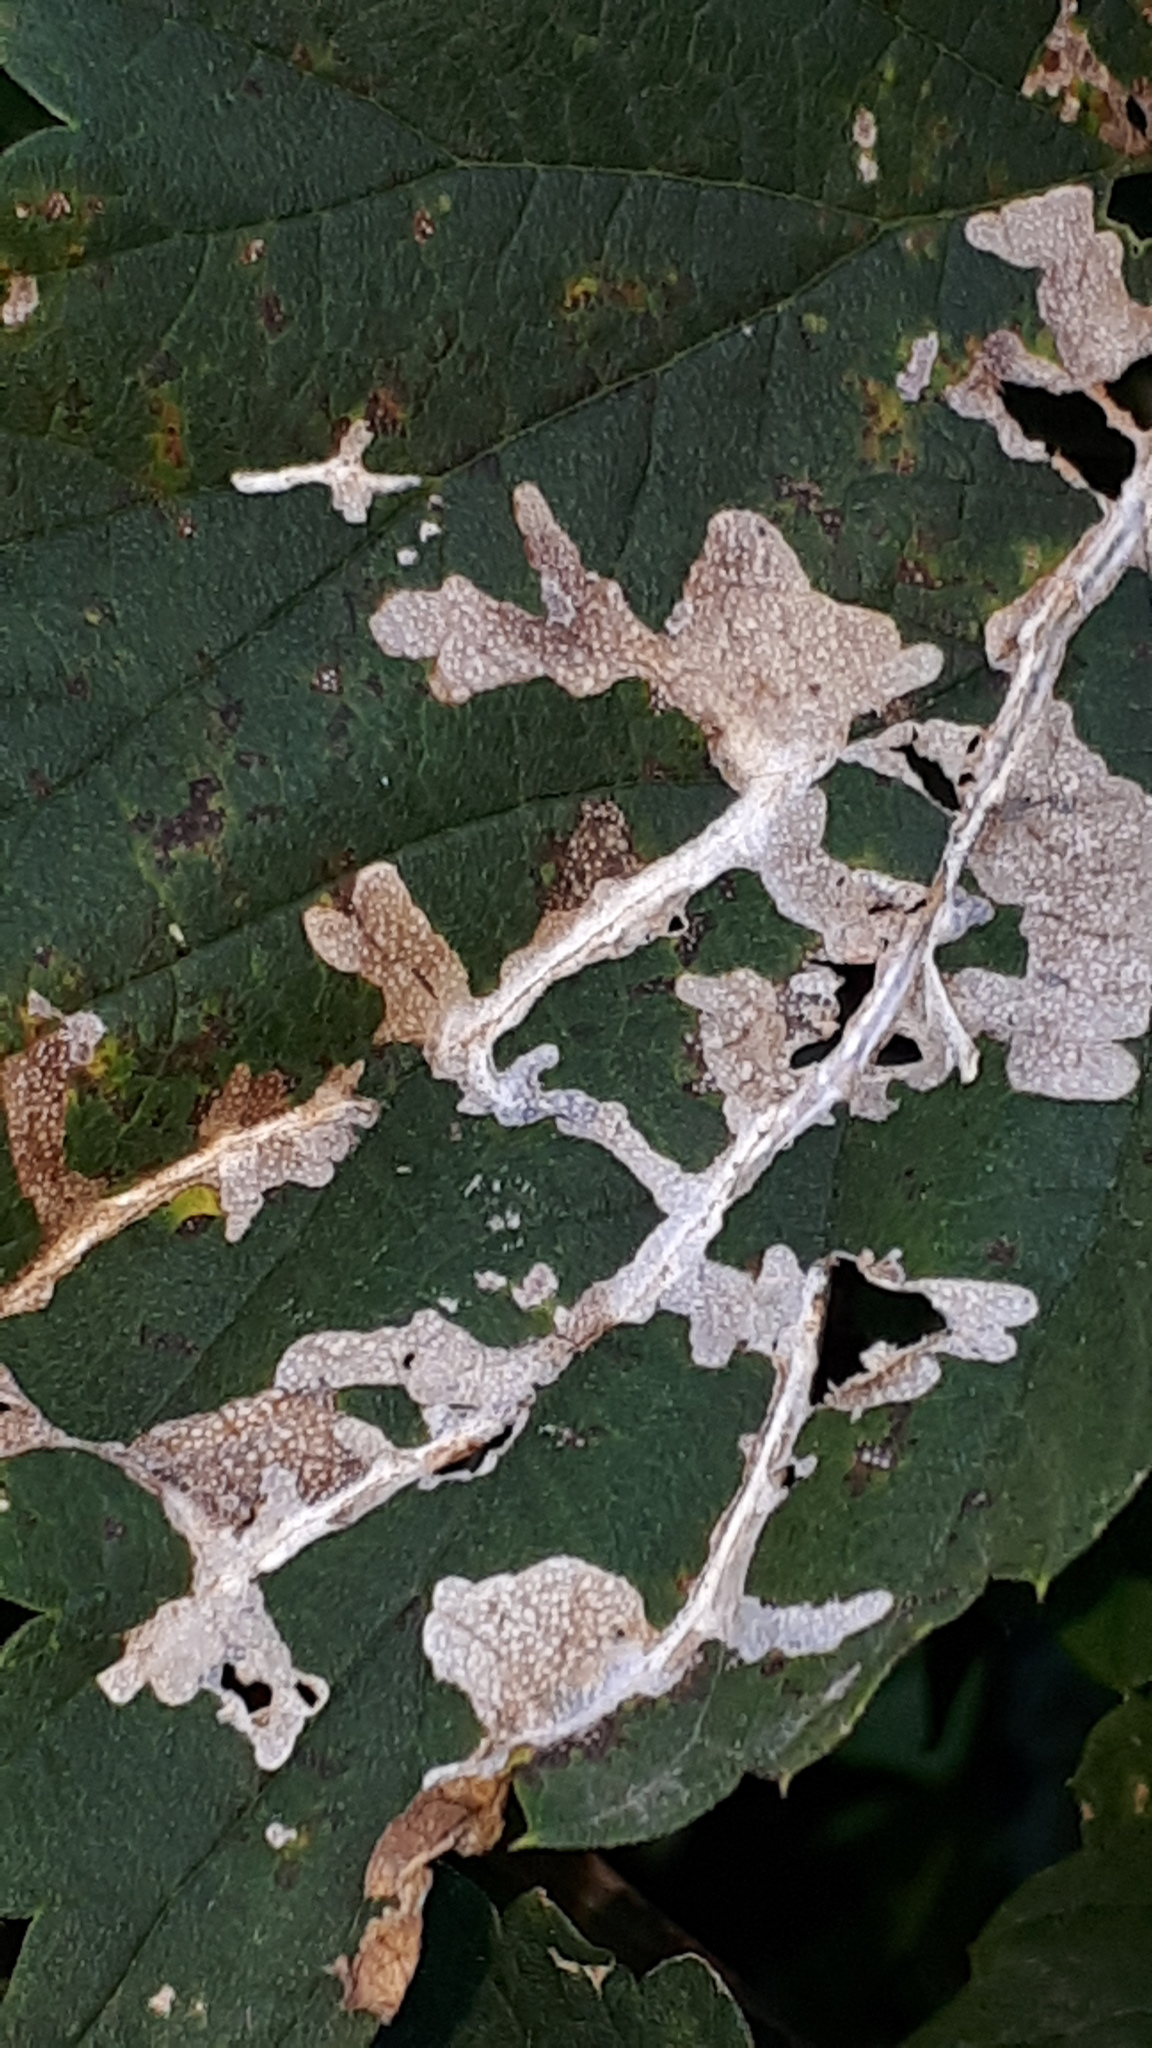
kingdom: Animalia
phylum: Arthropoda
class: Insecta
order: Lepidoptera
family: Cosmopterigidae
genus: Cosmopterix
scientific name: Cosmopterix zieglerella
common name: Hedge cosmet
